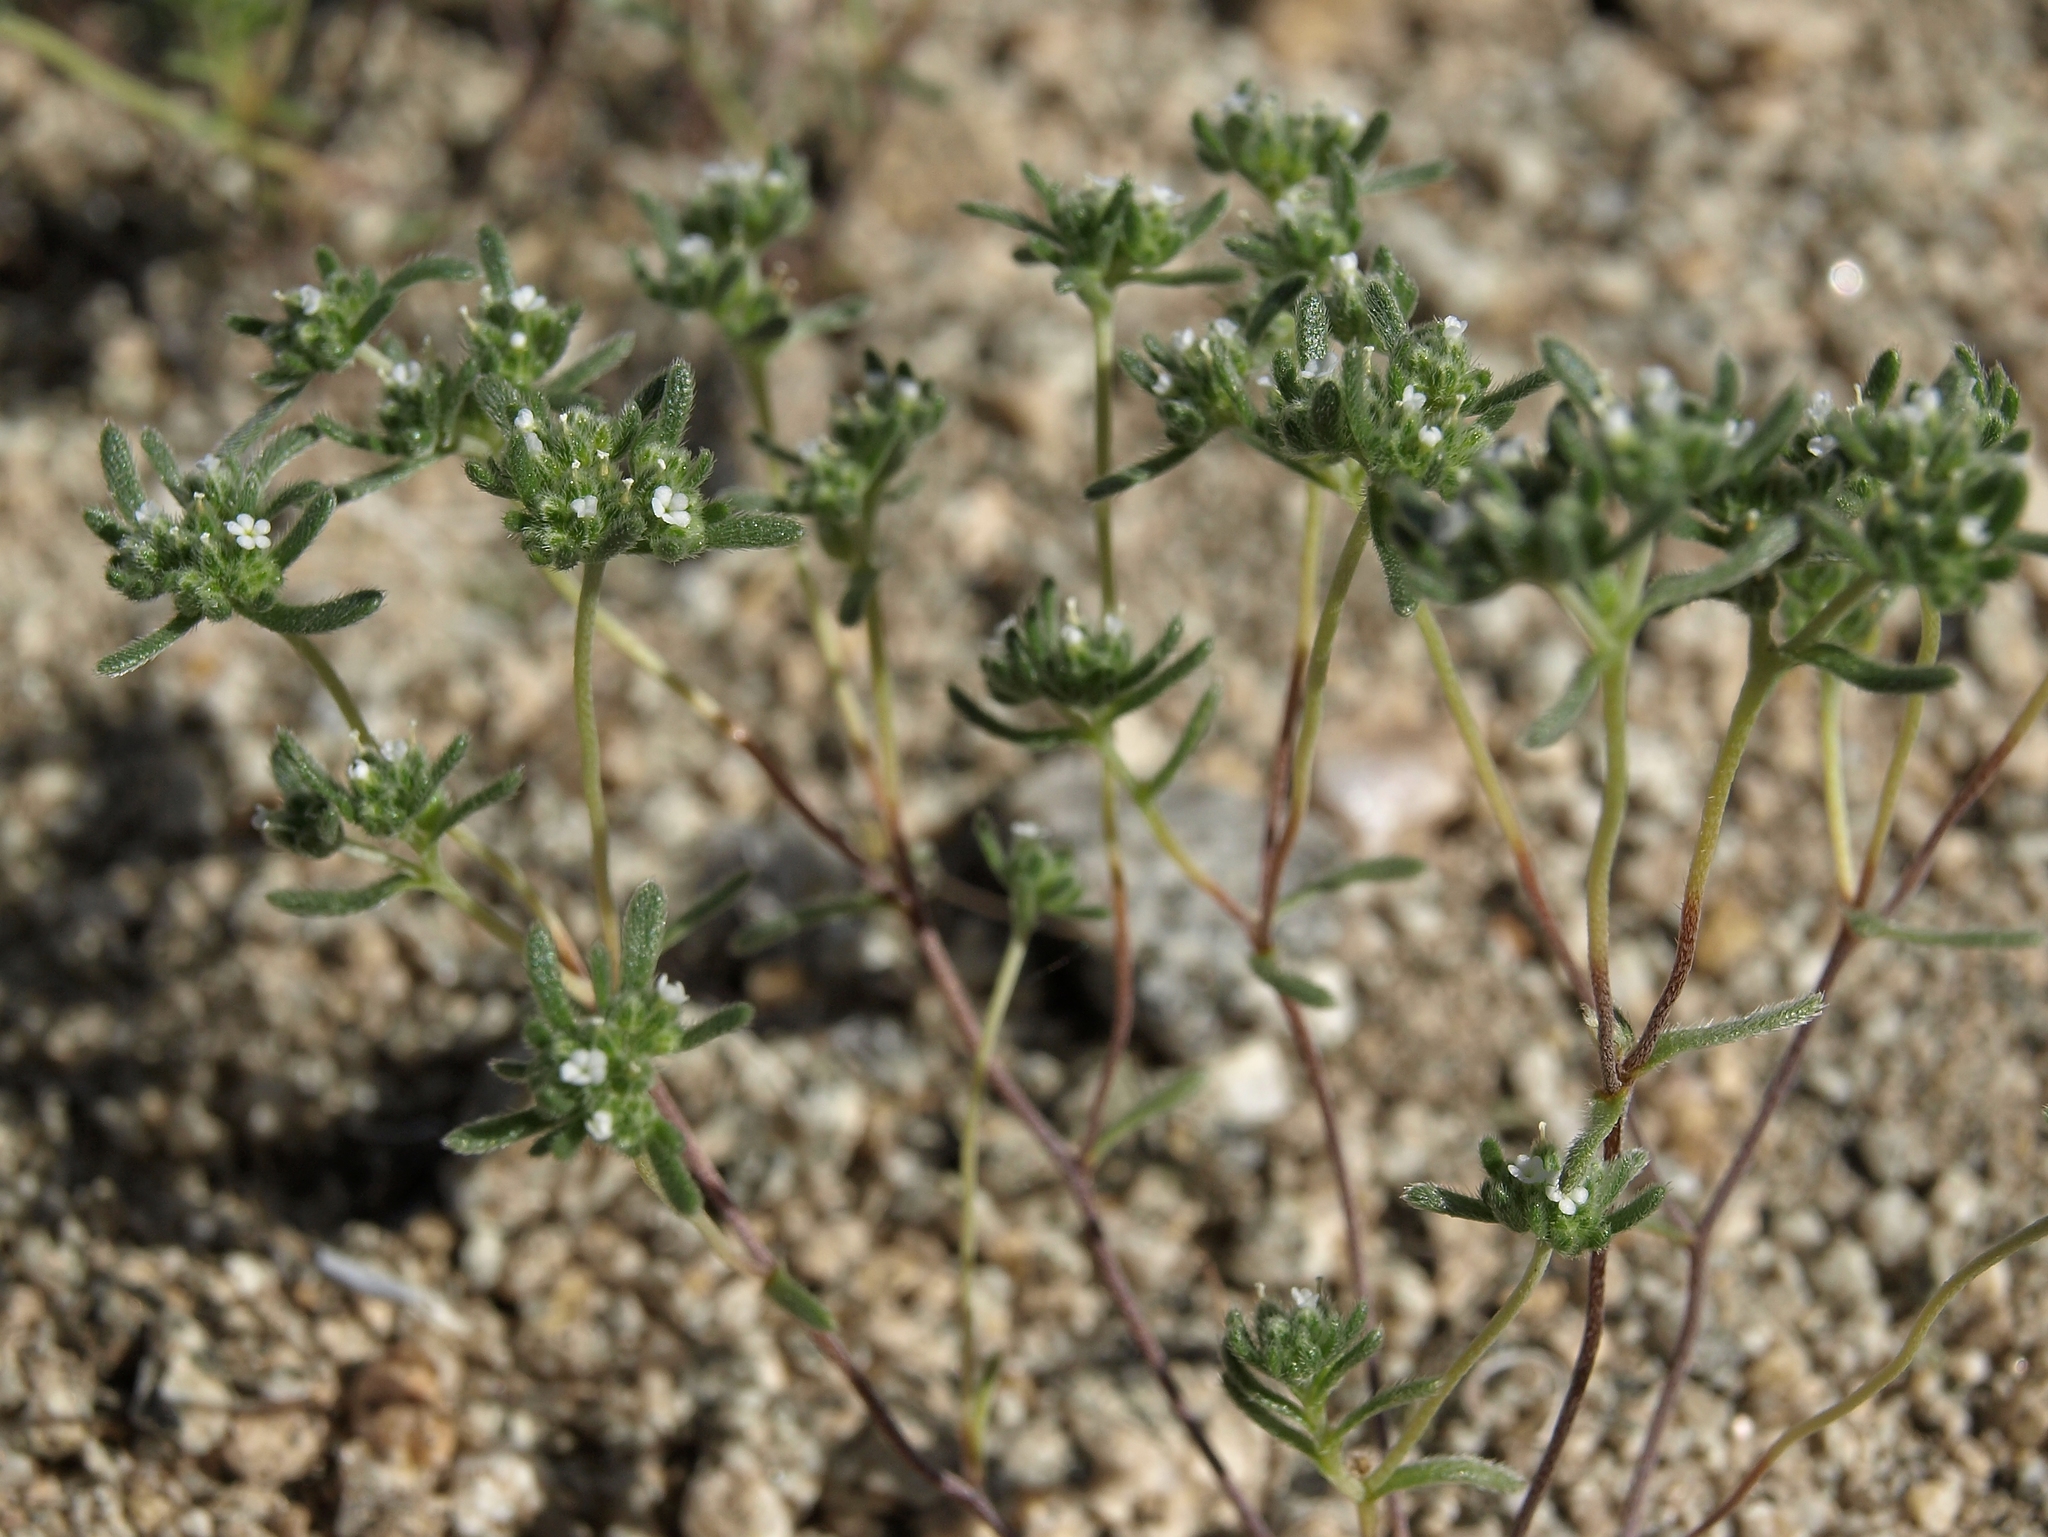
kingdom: Plantae
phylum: Tracheophyta
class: Magnoliopsida
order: Boraginales
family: Boraginaceae
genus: Eremocarya
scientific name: Eremocarya micrantha
